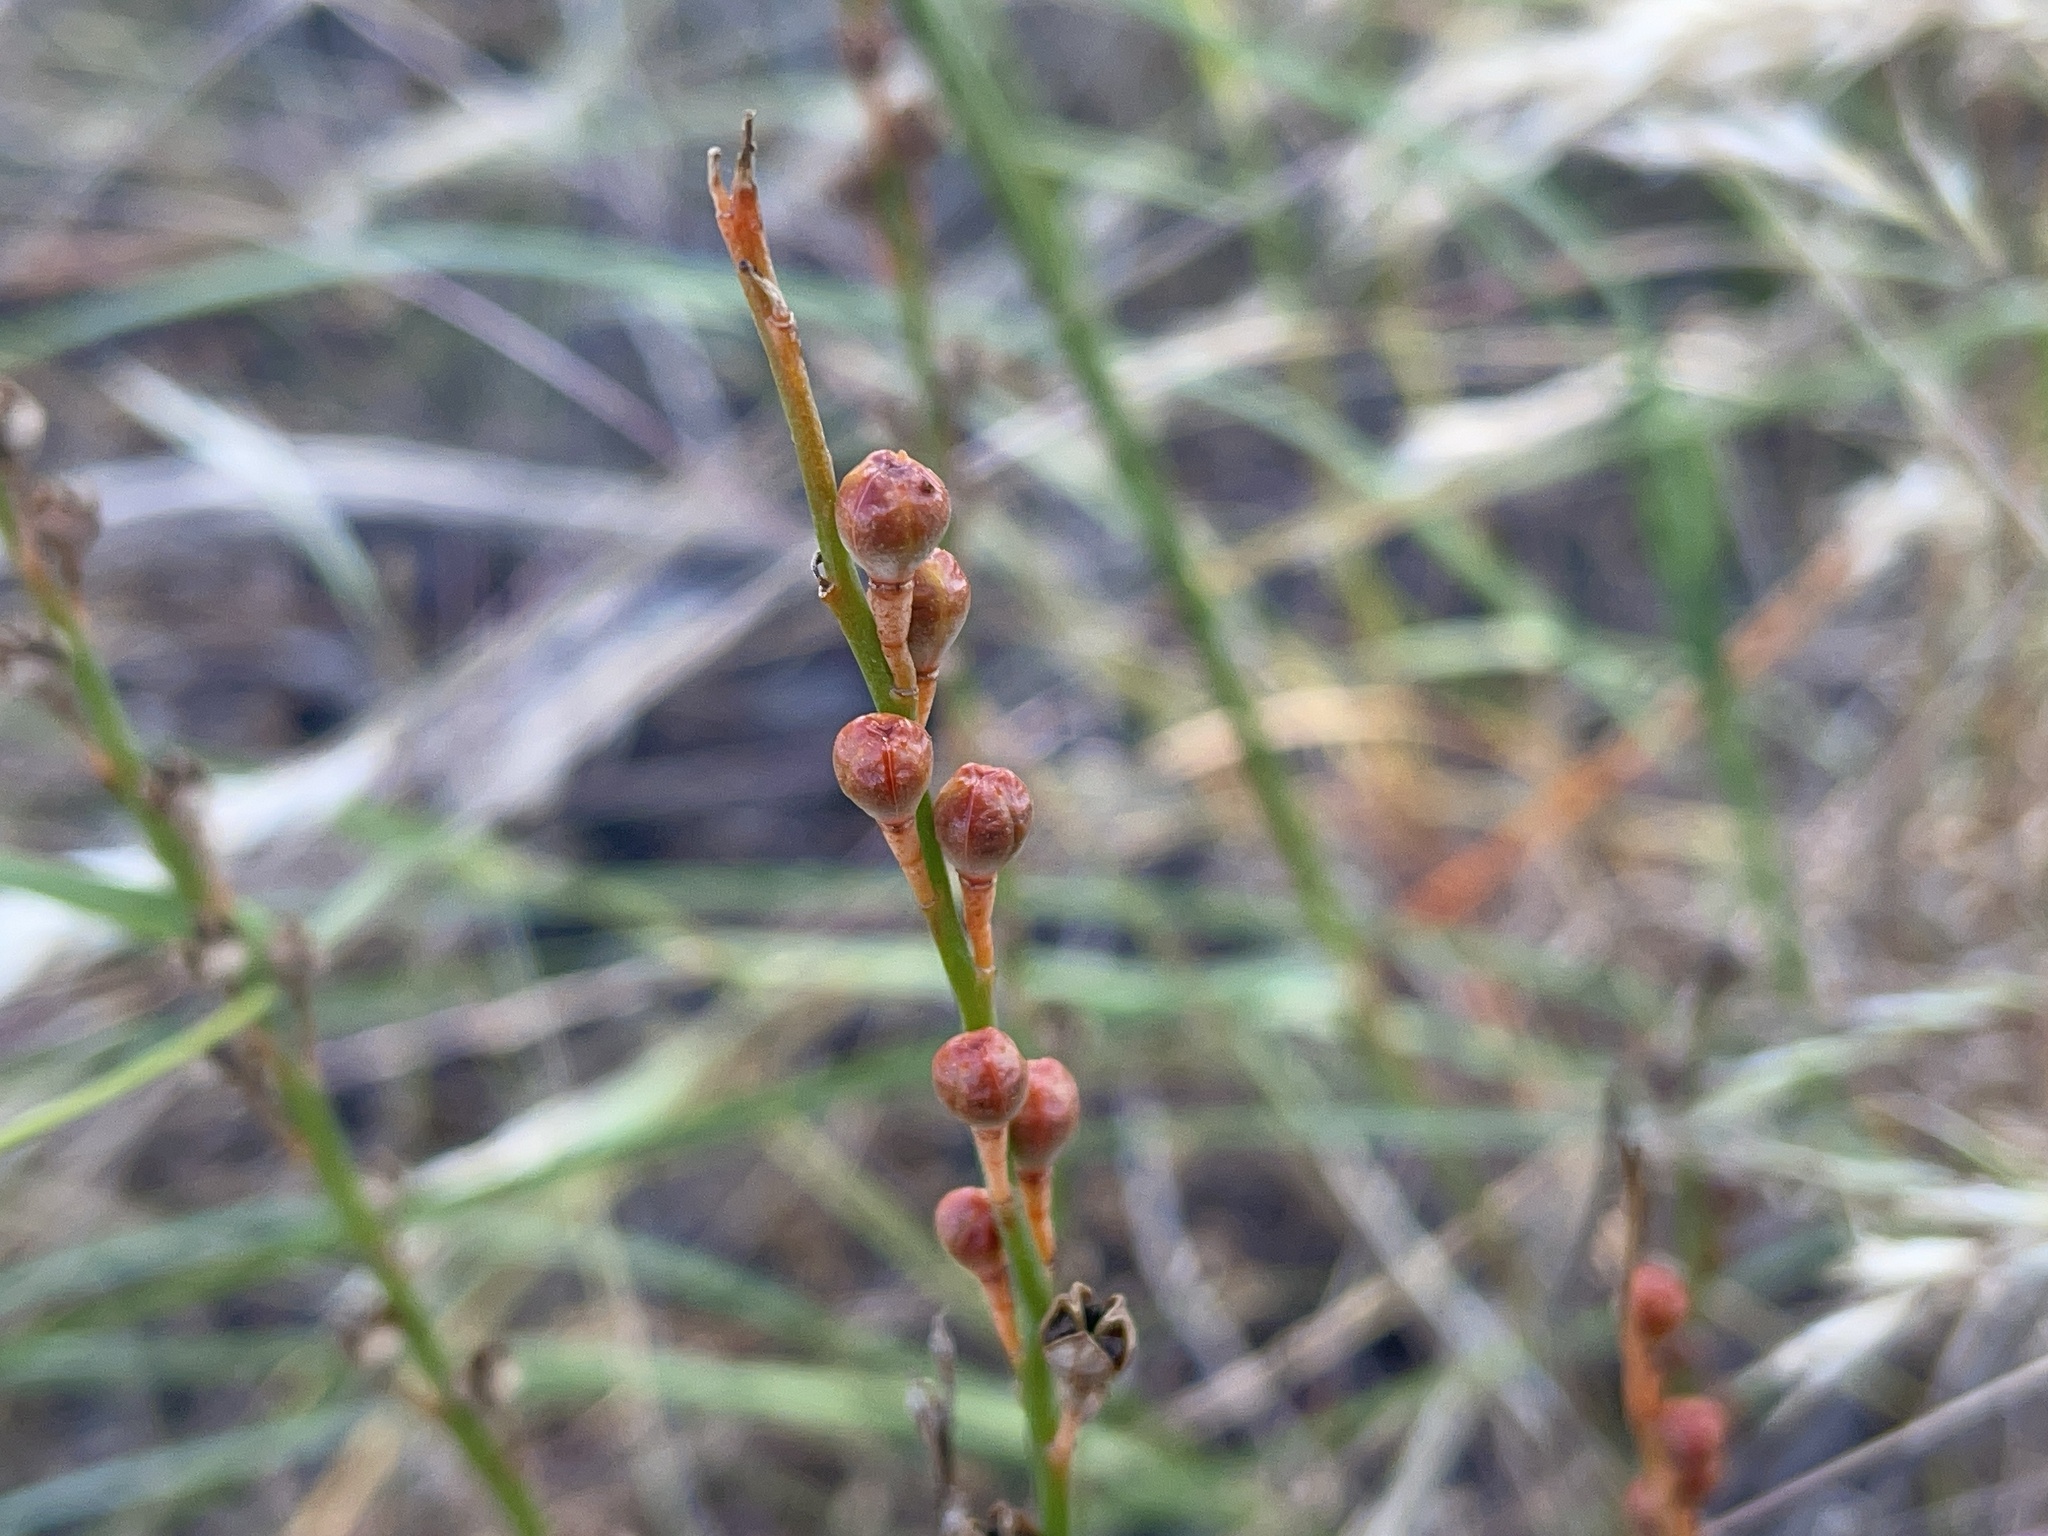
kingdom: Plantae
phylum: Tracheophyta
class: Liliopsida
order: Asparagales
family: Asphodelaceae
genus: Asphodelus
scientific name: Asphodelus fistulosus
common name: Onionweed
